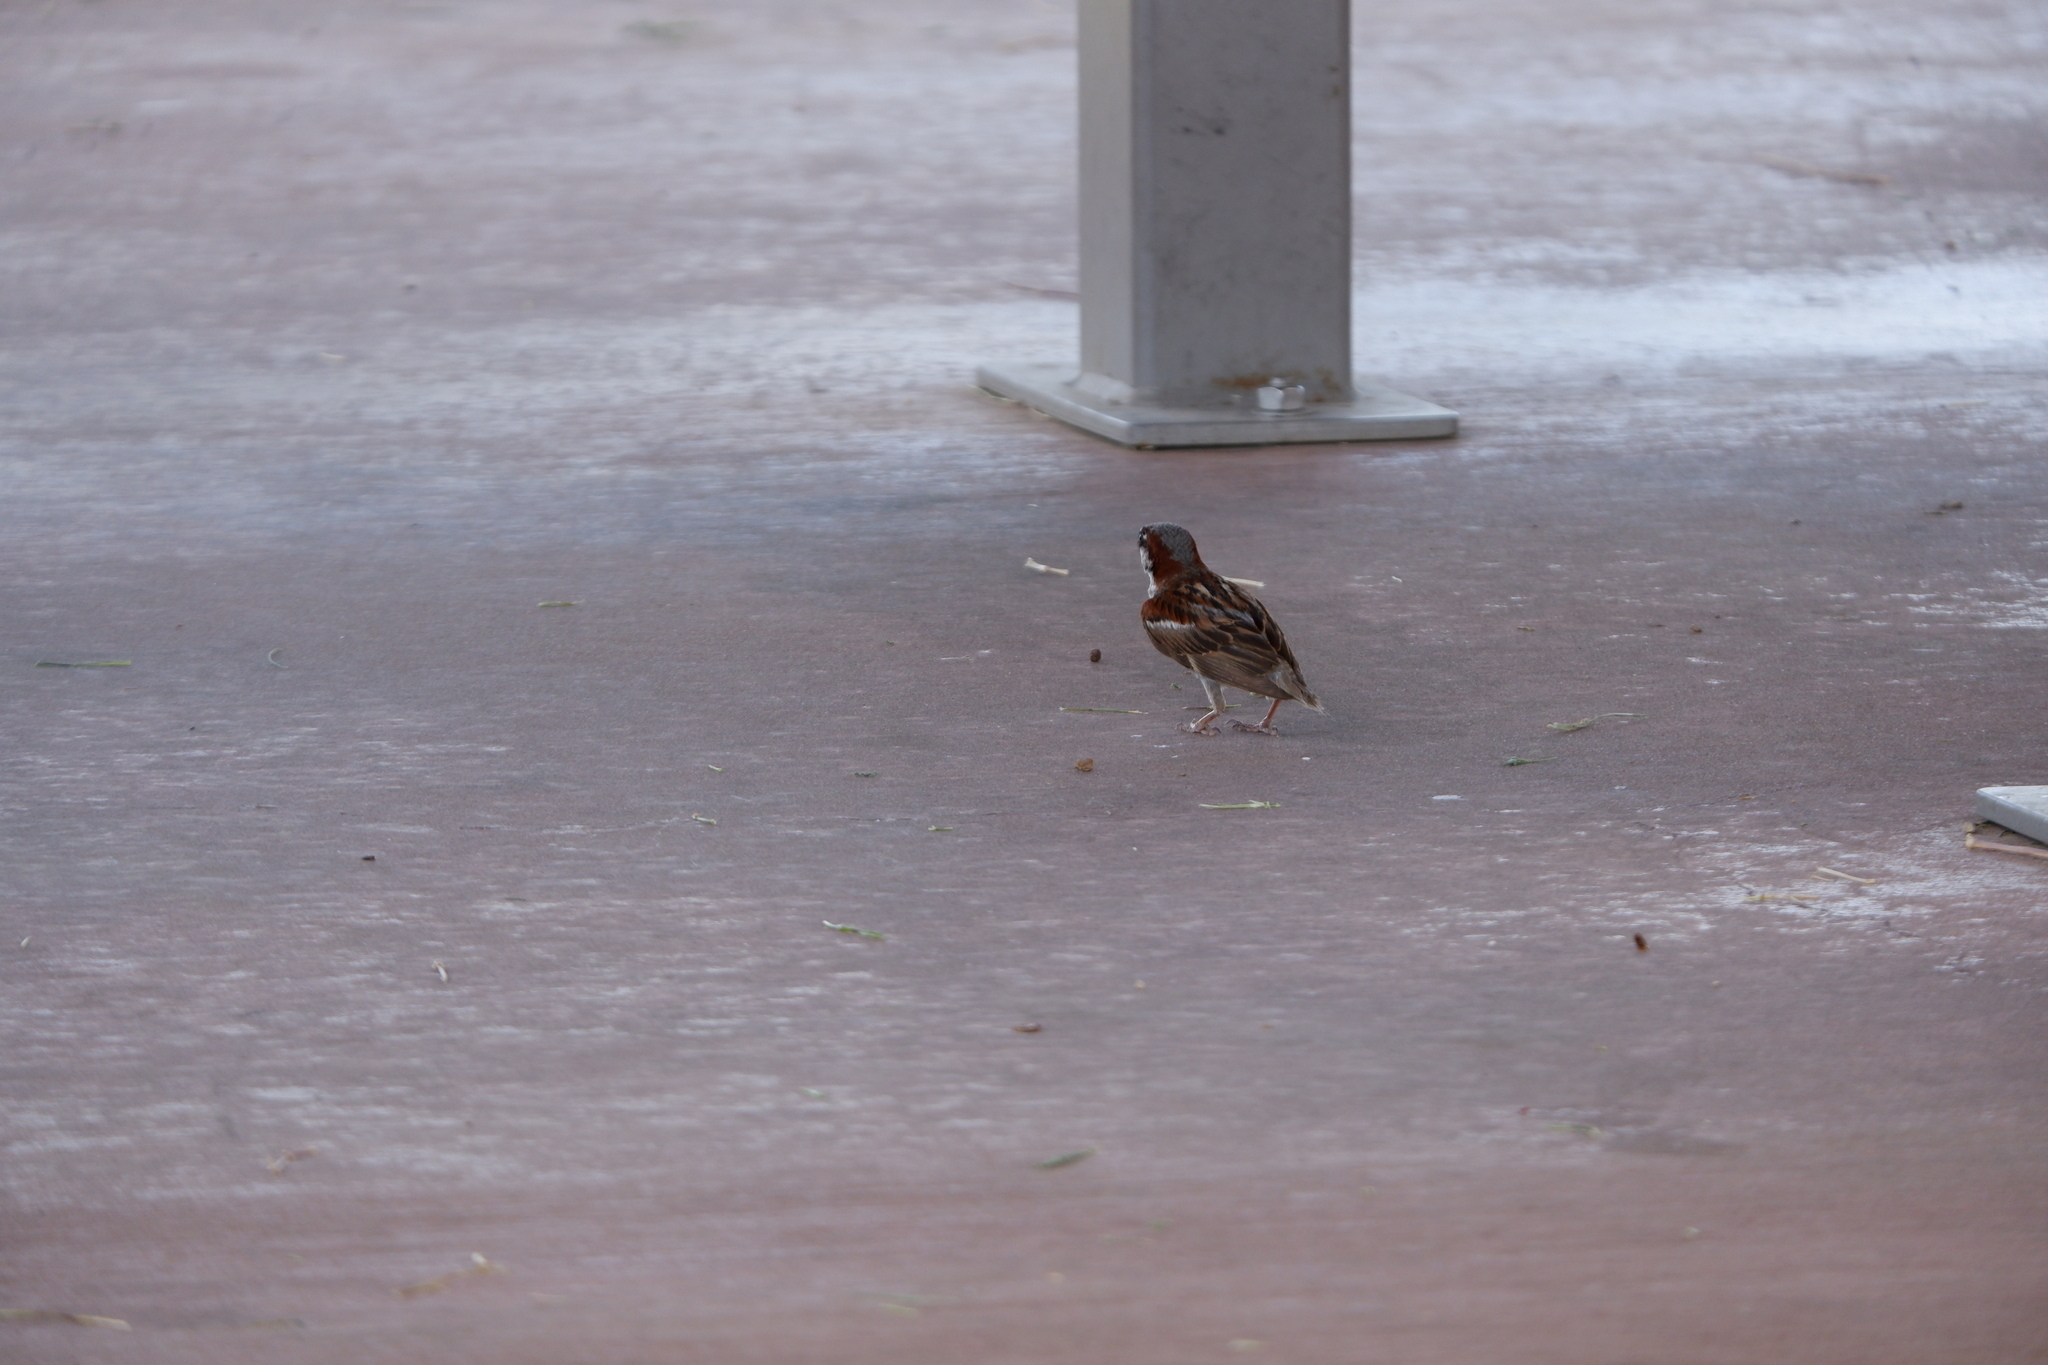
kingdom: Animalia
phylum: Chordata
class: Aves
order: Passeriformes
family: Passeridae
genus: Passer
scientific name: Passer domesticus
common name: House sparrow
